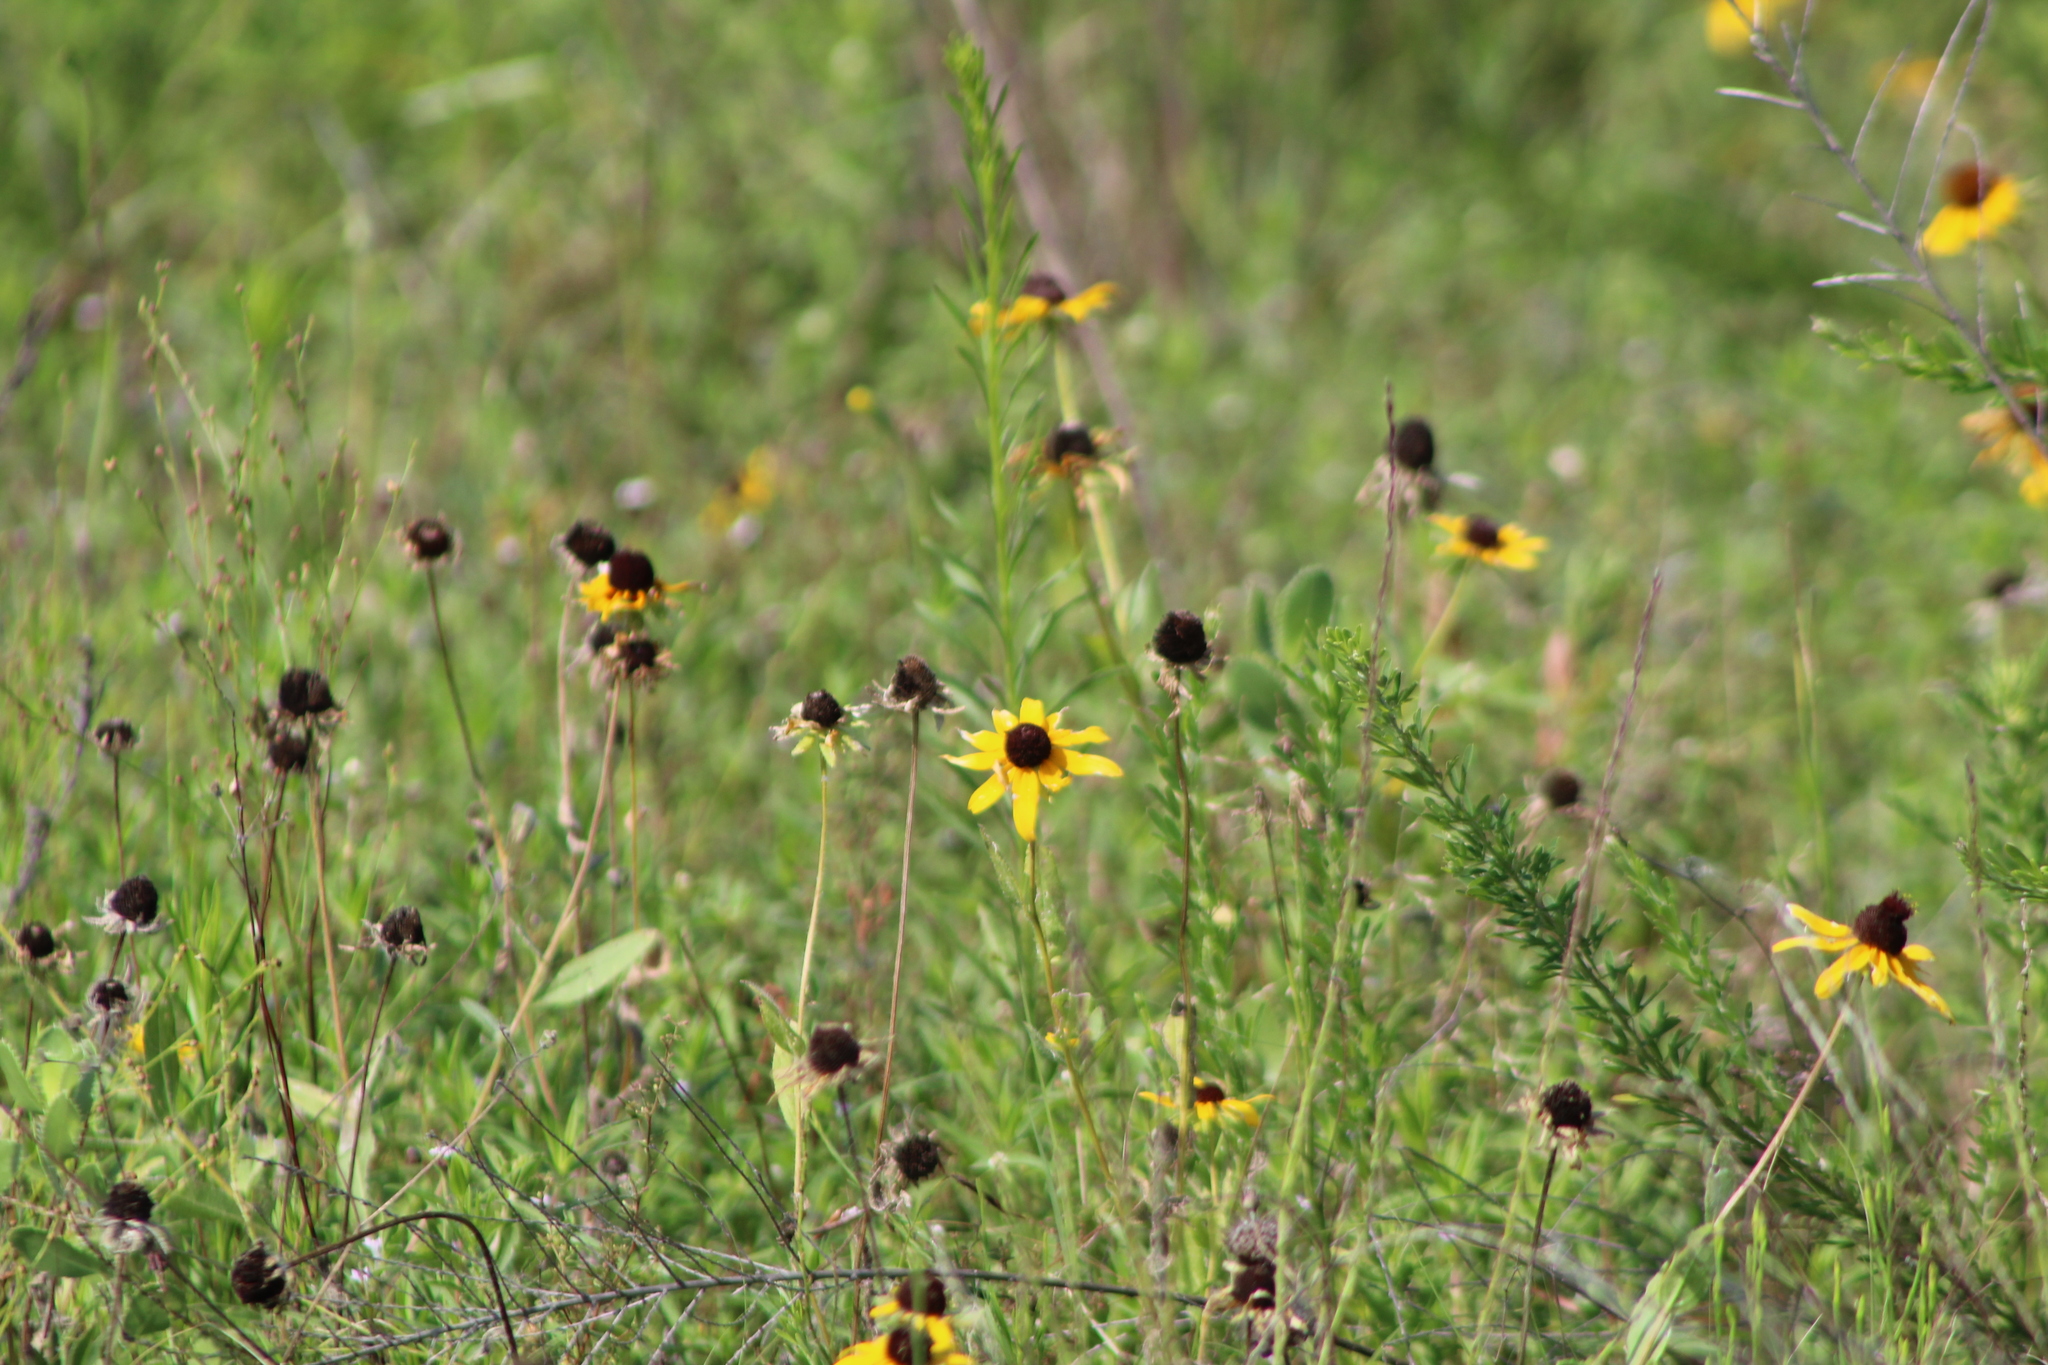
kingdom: Plantae
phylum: Tracheophyta
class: Magnoliopsida
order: Asterales
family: Asteraceae
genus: Rudbeckia
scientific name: Rudbeckia hirta
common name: Black-eyed-susan
